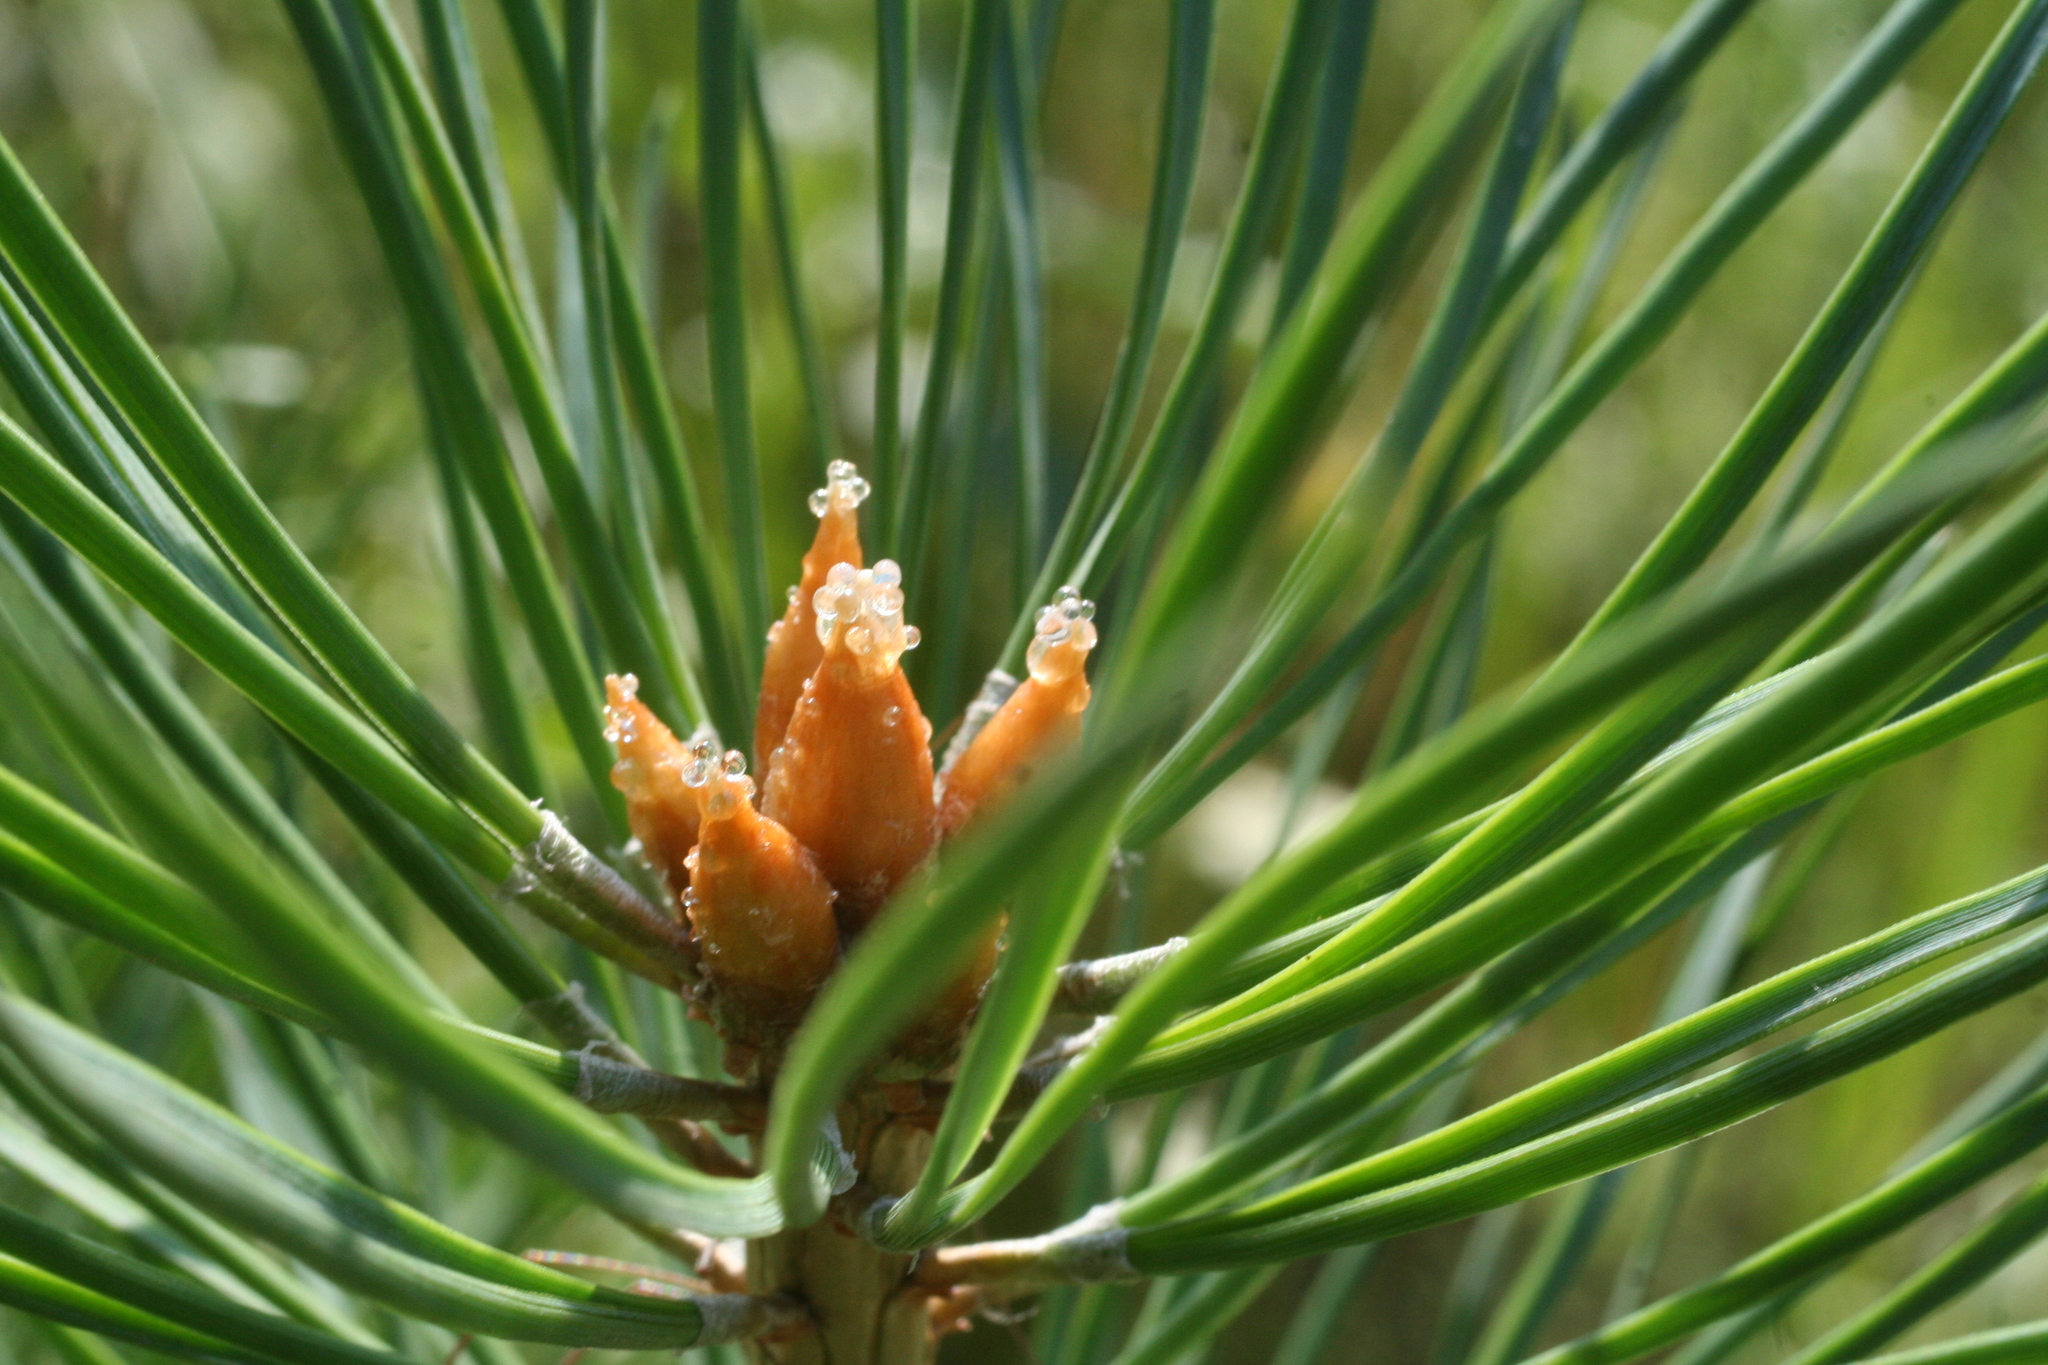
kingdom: Plantae
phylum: Tracheophyta
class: Pinopsida
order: Pinales
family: Pinaceae
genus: Pinus
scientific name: Pinus sylvestris
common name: Scots pine
